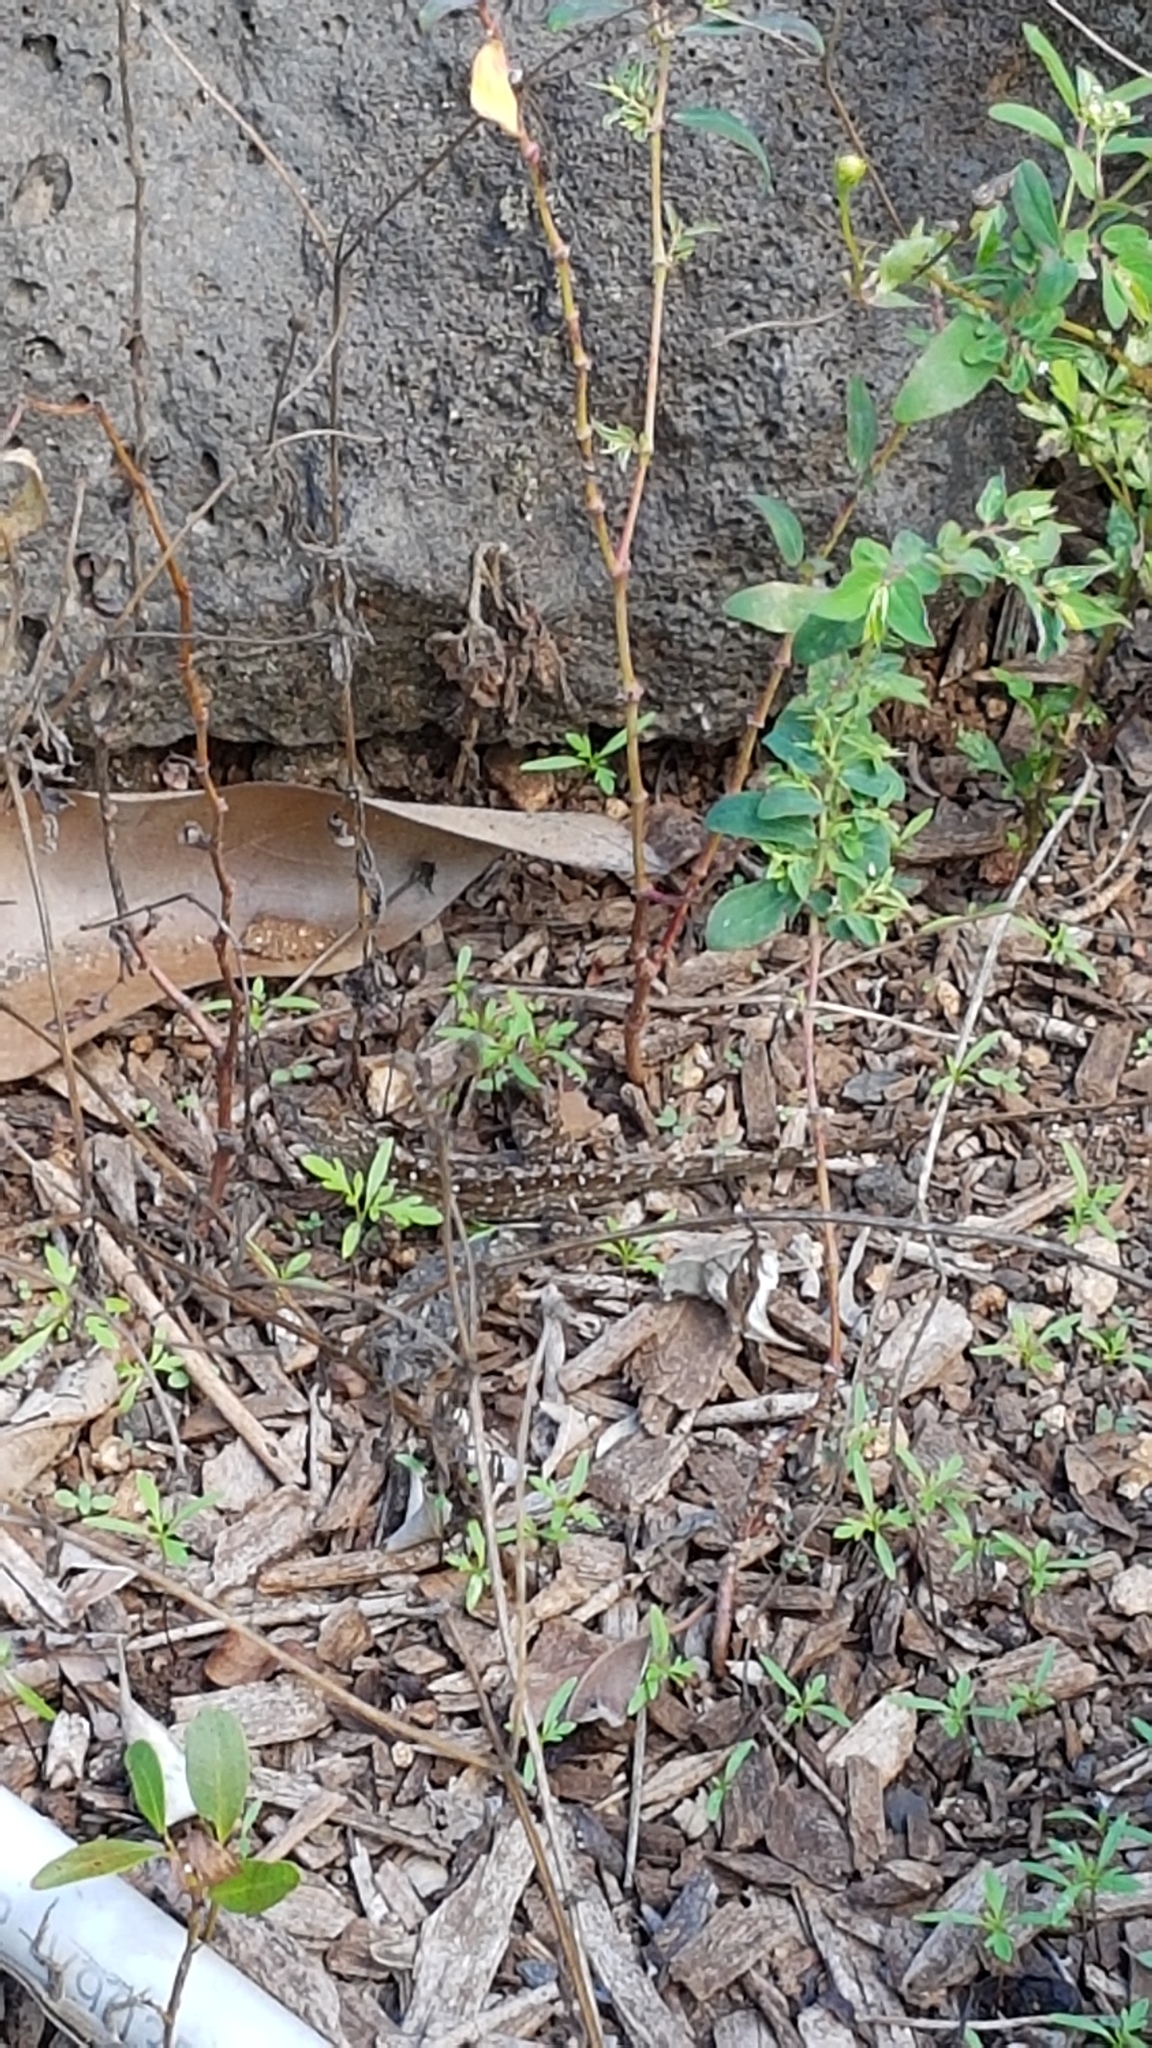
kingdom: Animalia
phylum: Chordata
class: Squamata
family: Dactyloidae
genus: Anolis
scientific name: Anolis sagrei
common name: Brown anole
